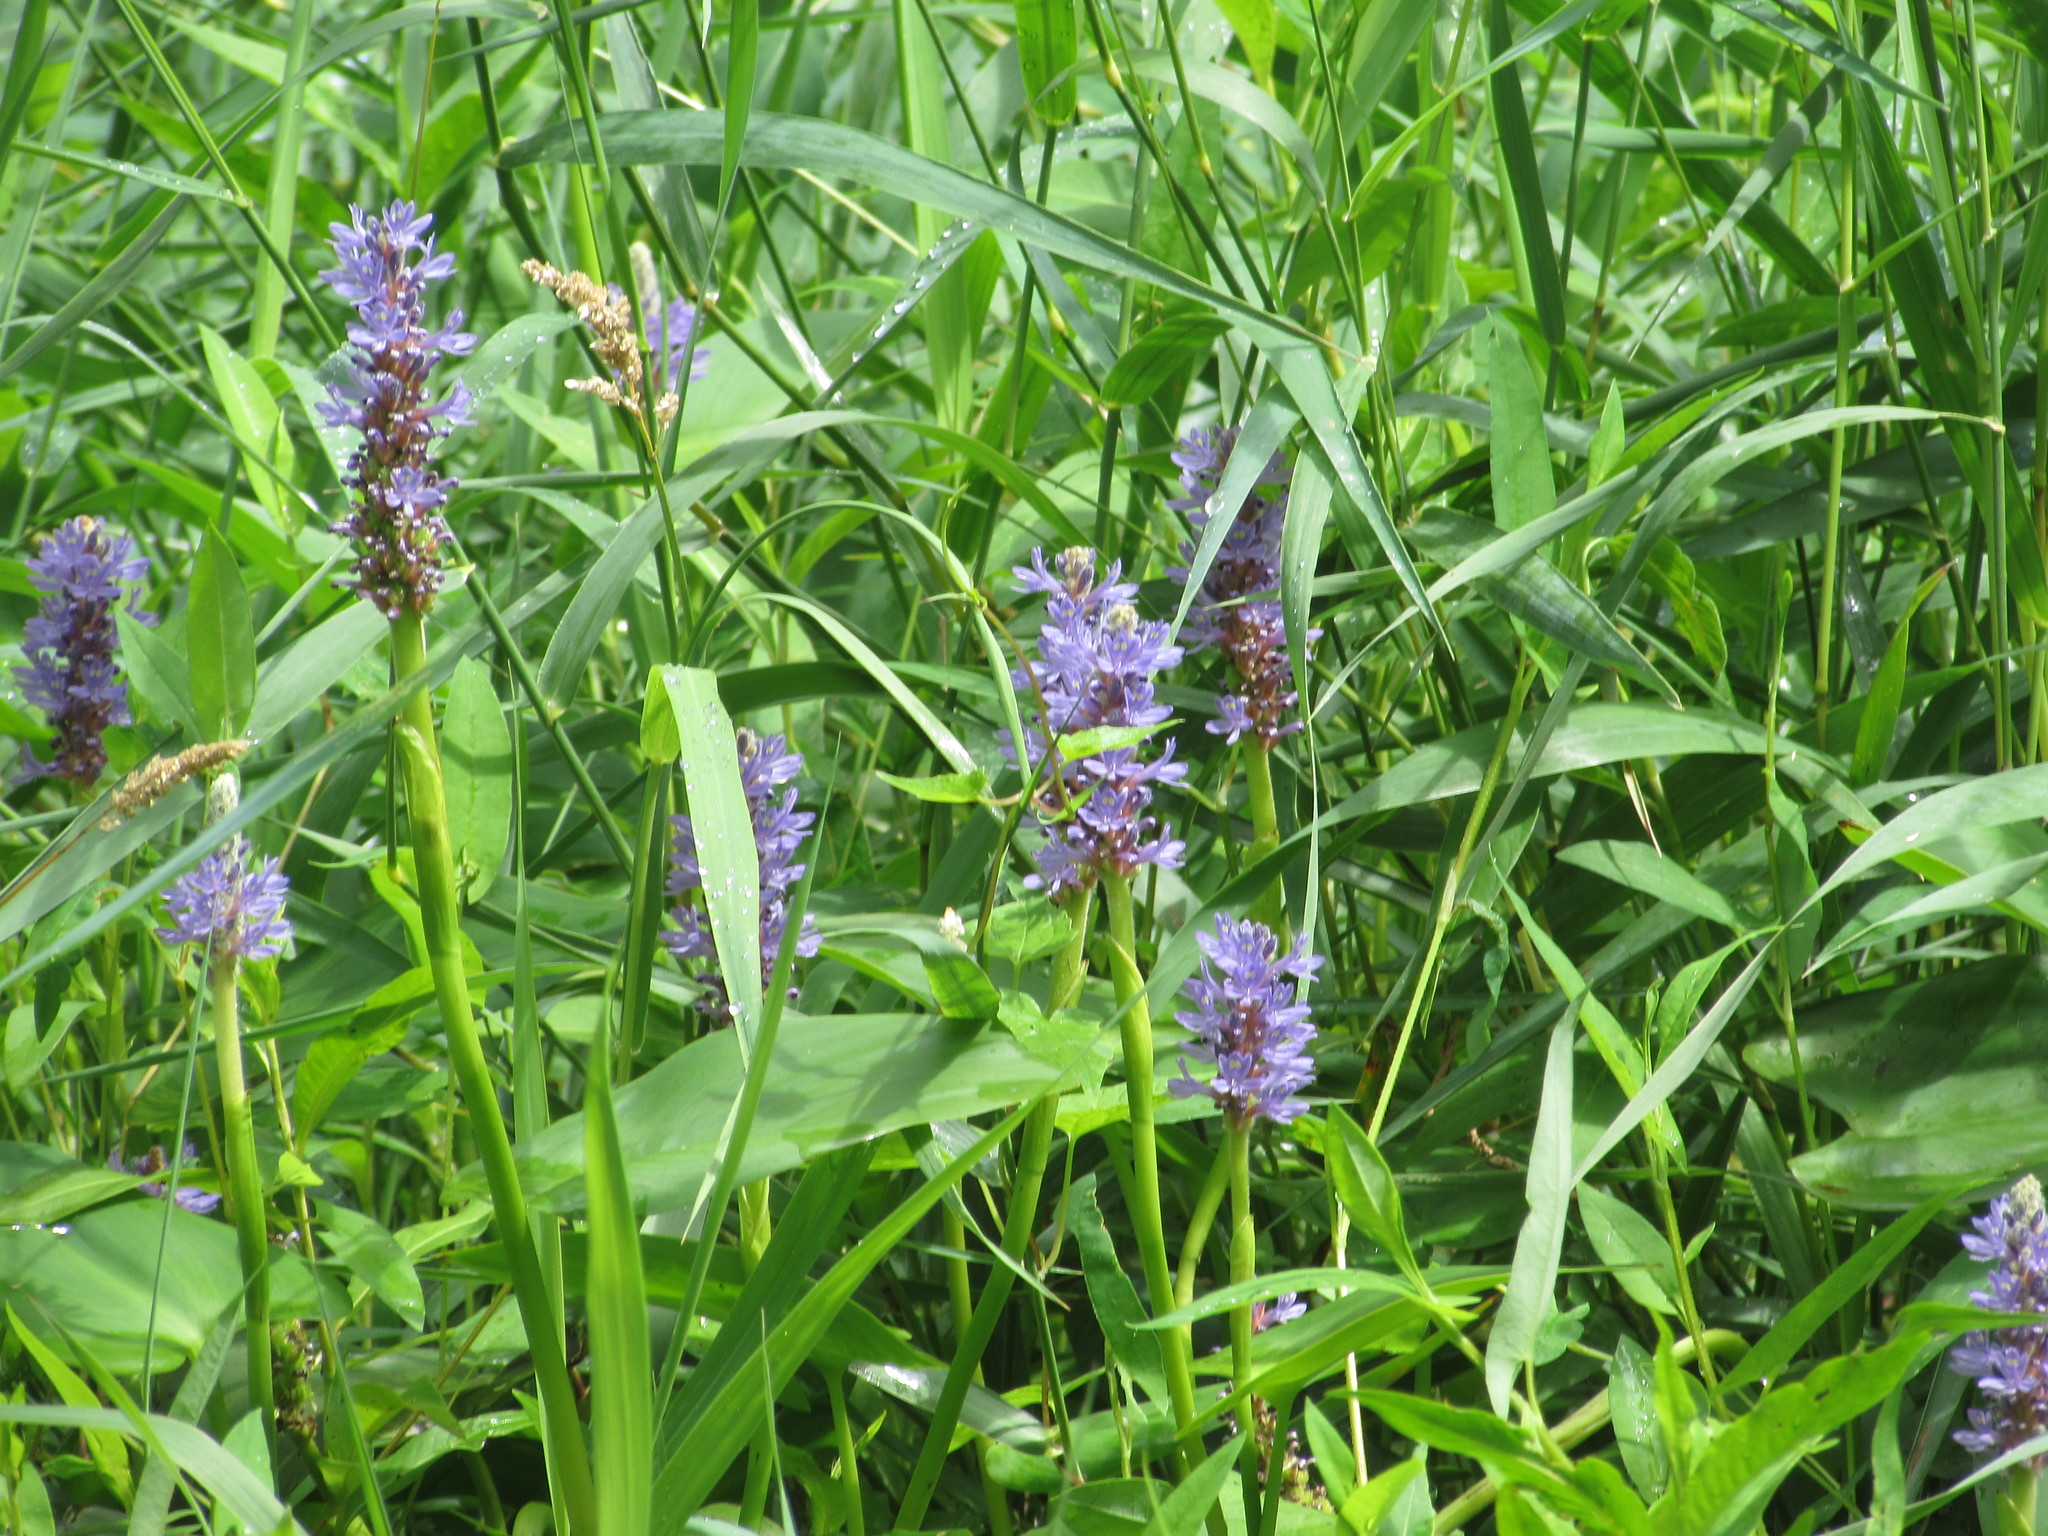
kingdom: Plantae
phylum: Tracheophyta
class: Liliopsida
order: Commelinales
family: Pontederiaceae
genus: Pontederia
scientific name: Pontederia cordata
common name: Pickerelweed
